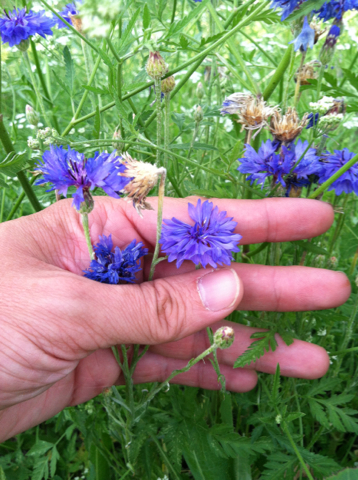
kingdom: Plantae
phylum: Tracheophyta
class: Magnoliopsida
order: Asterales
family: Asteraceae
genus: Centaurea
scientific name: Centaurea cyanus
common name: Cornflower
